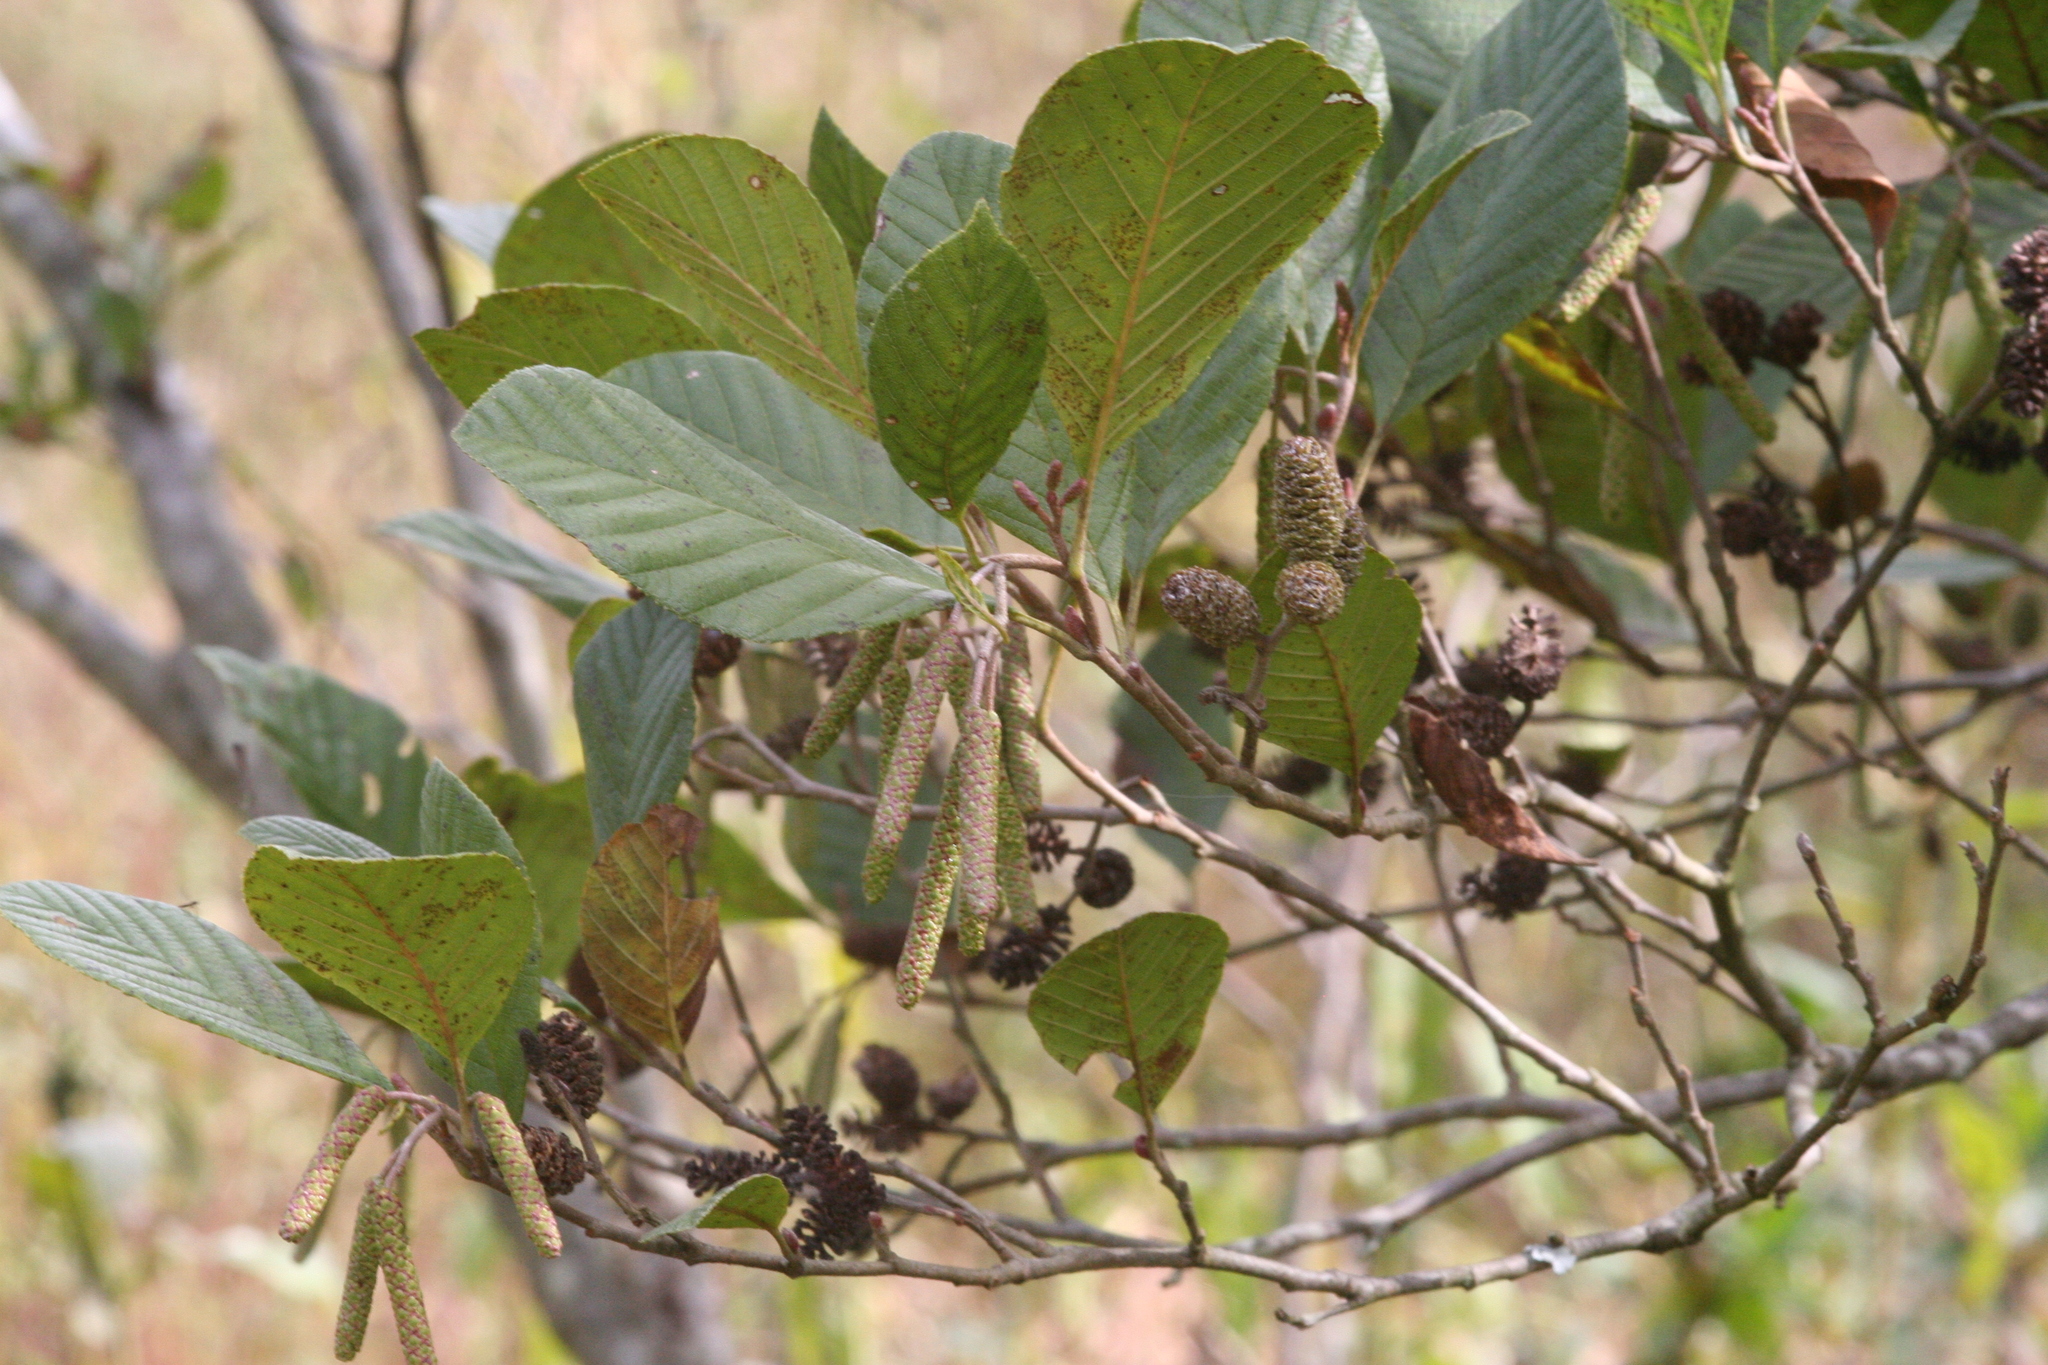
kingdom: Plantae
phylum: Tracheophyta
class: Magnoliopsida
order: Fagales
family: Betulaceae
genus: Alnus
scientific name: Alnus serrulata
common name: Hazel alder
